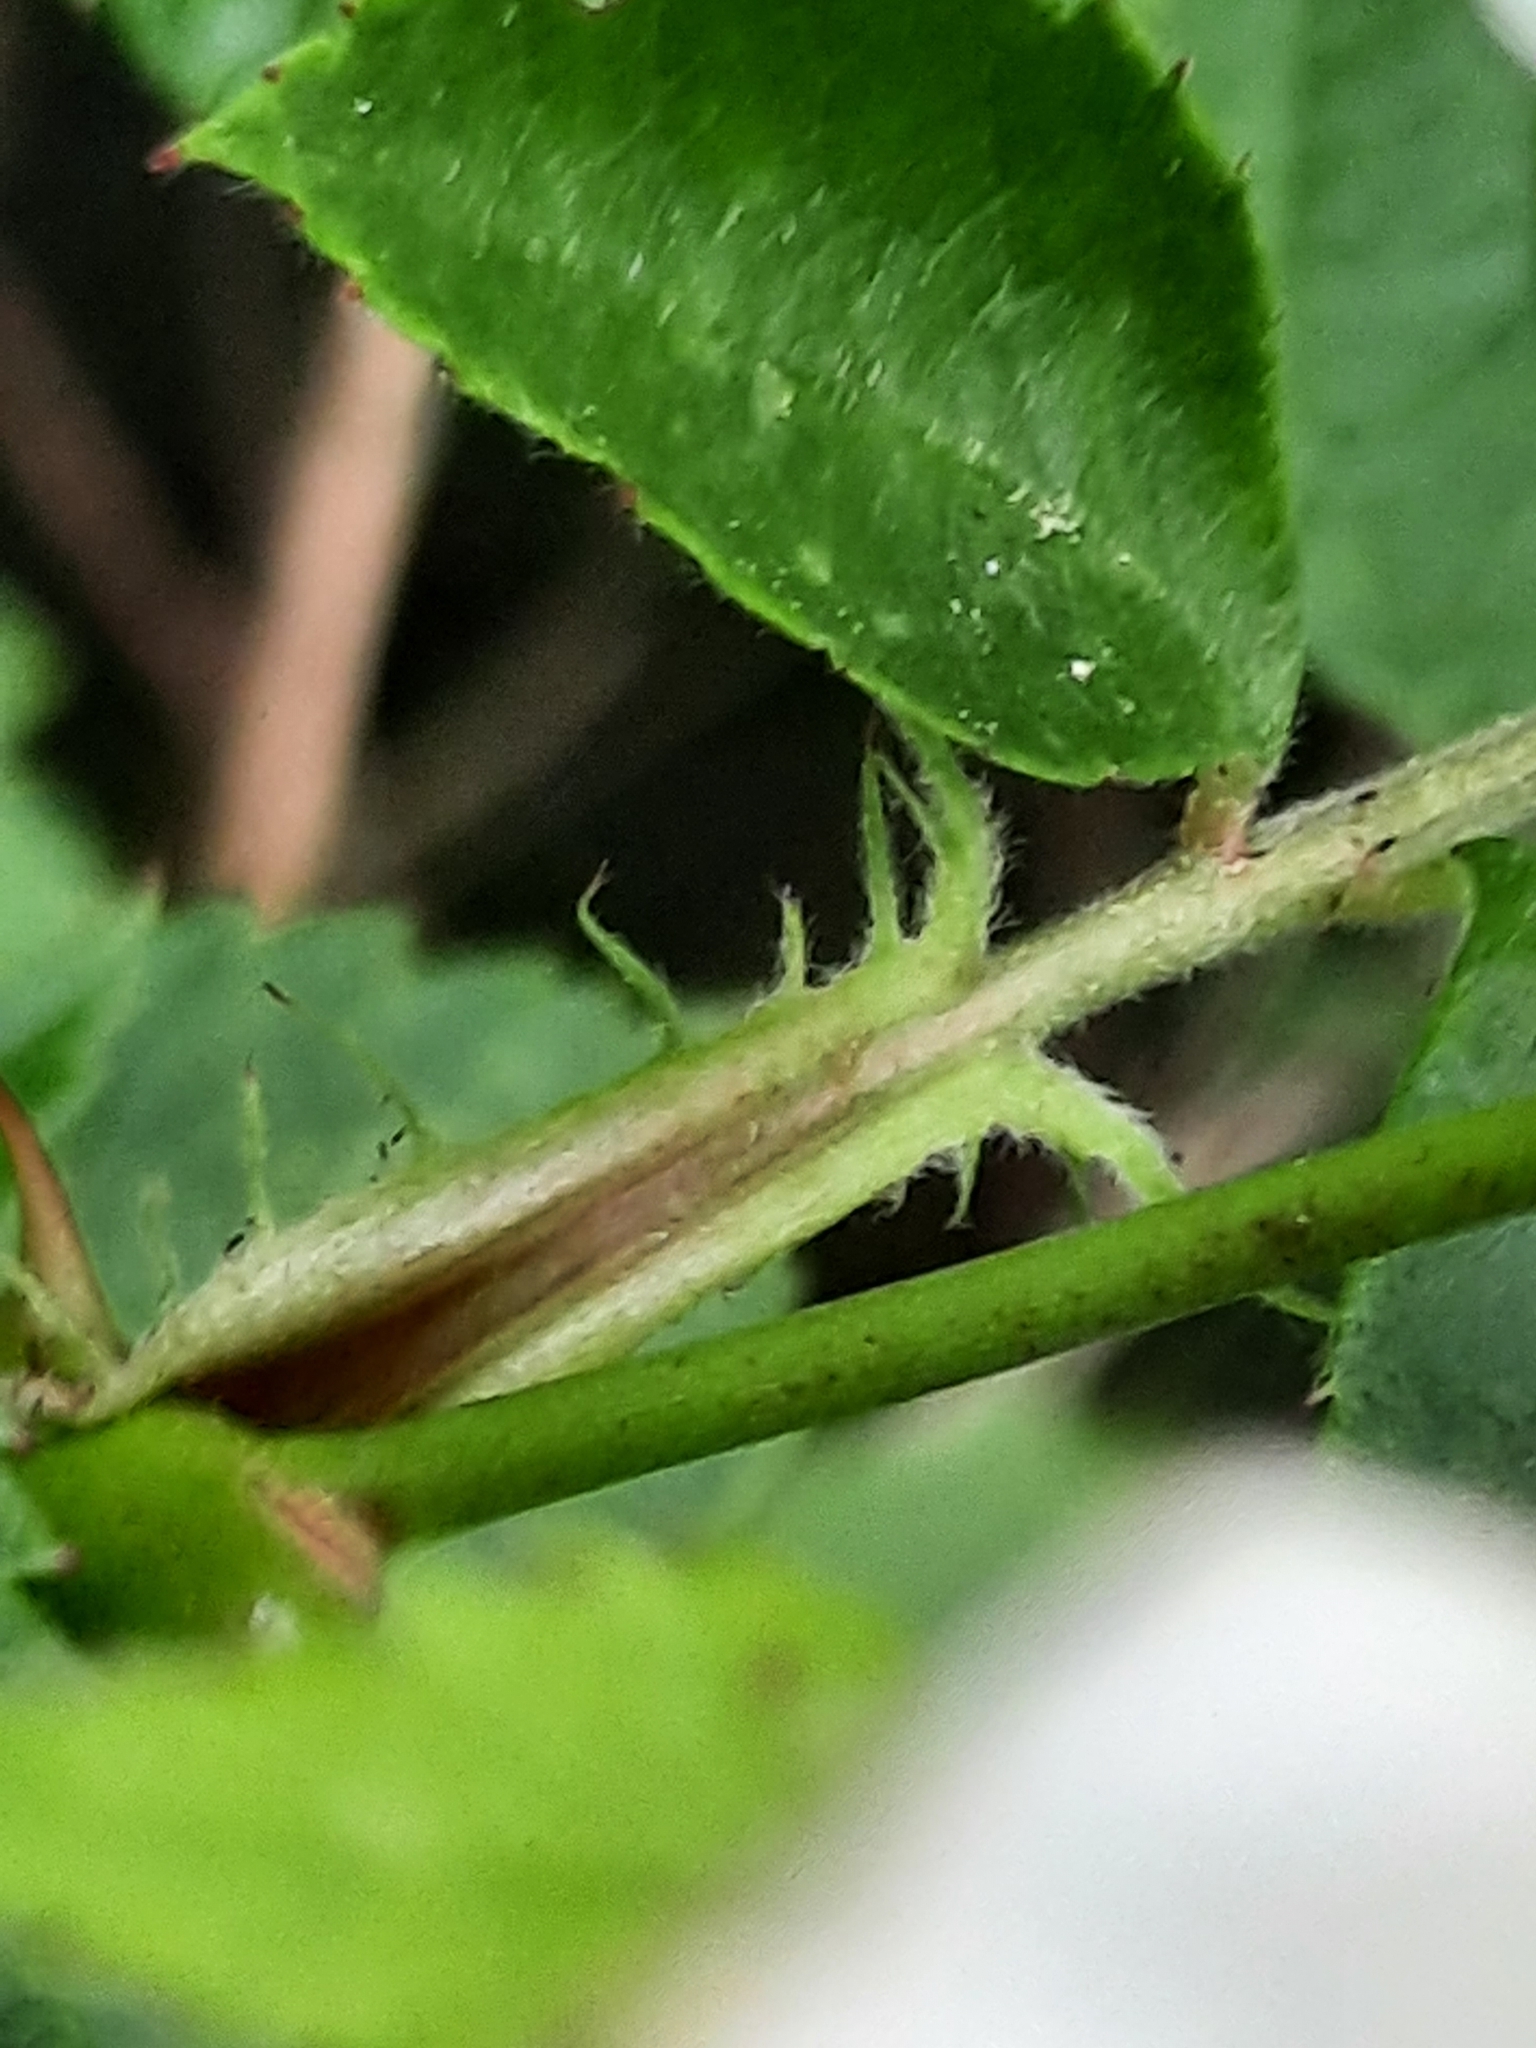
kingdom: Plantae
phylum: Tracheophyta
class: Magnoliopsida
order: Rosales
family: Rosaceae
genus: Rosa
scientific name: Rosa multiflora
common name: Multiflora rose
